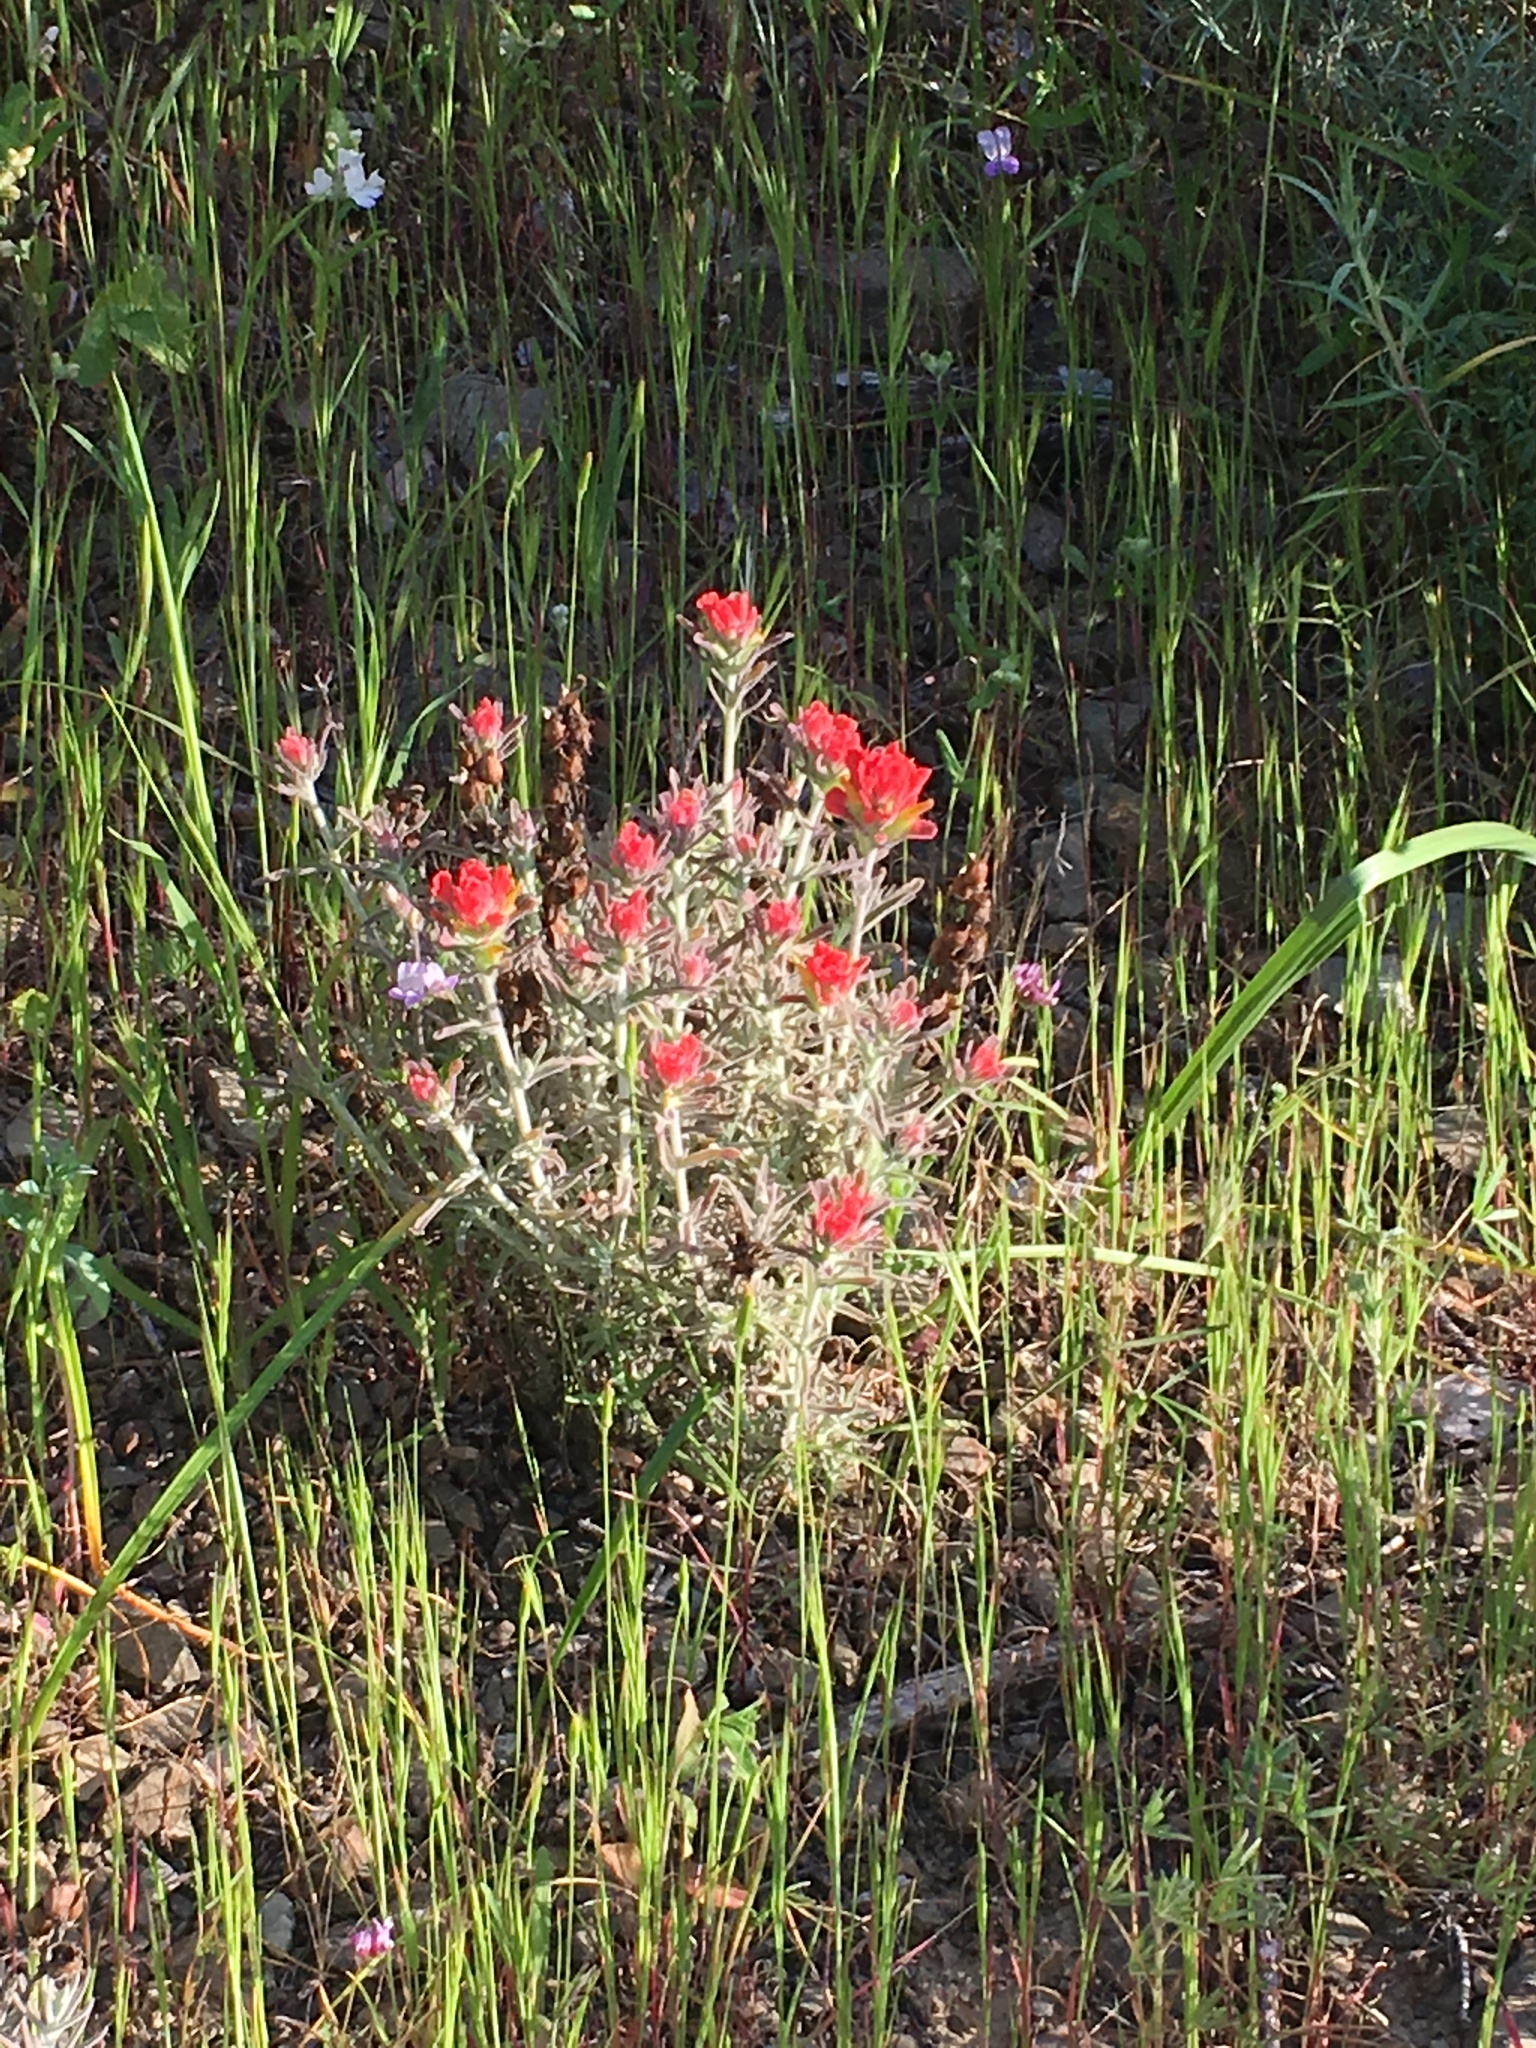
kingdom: Plantae
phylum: Tracheophyta
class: Magnoliopsida
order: Lamiales
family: Orobanchaceae
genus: Castilleja
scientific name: Castilleja foliolosa
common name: Woolly indian paintbrush
